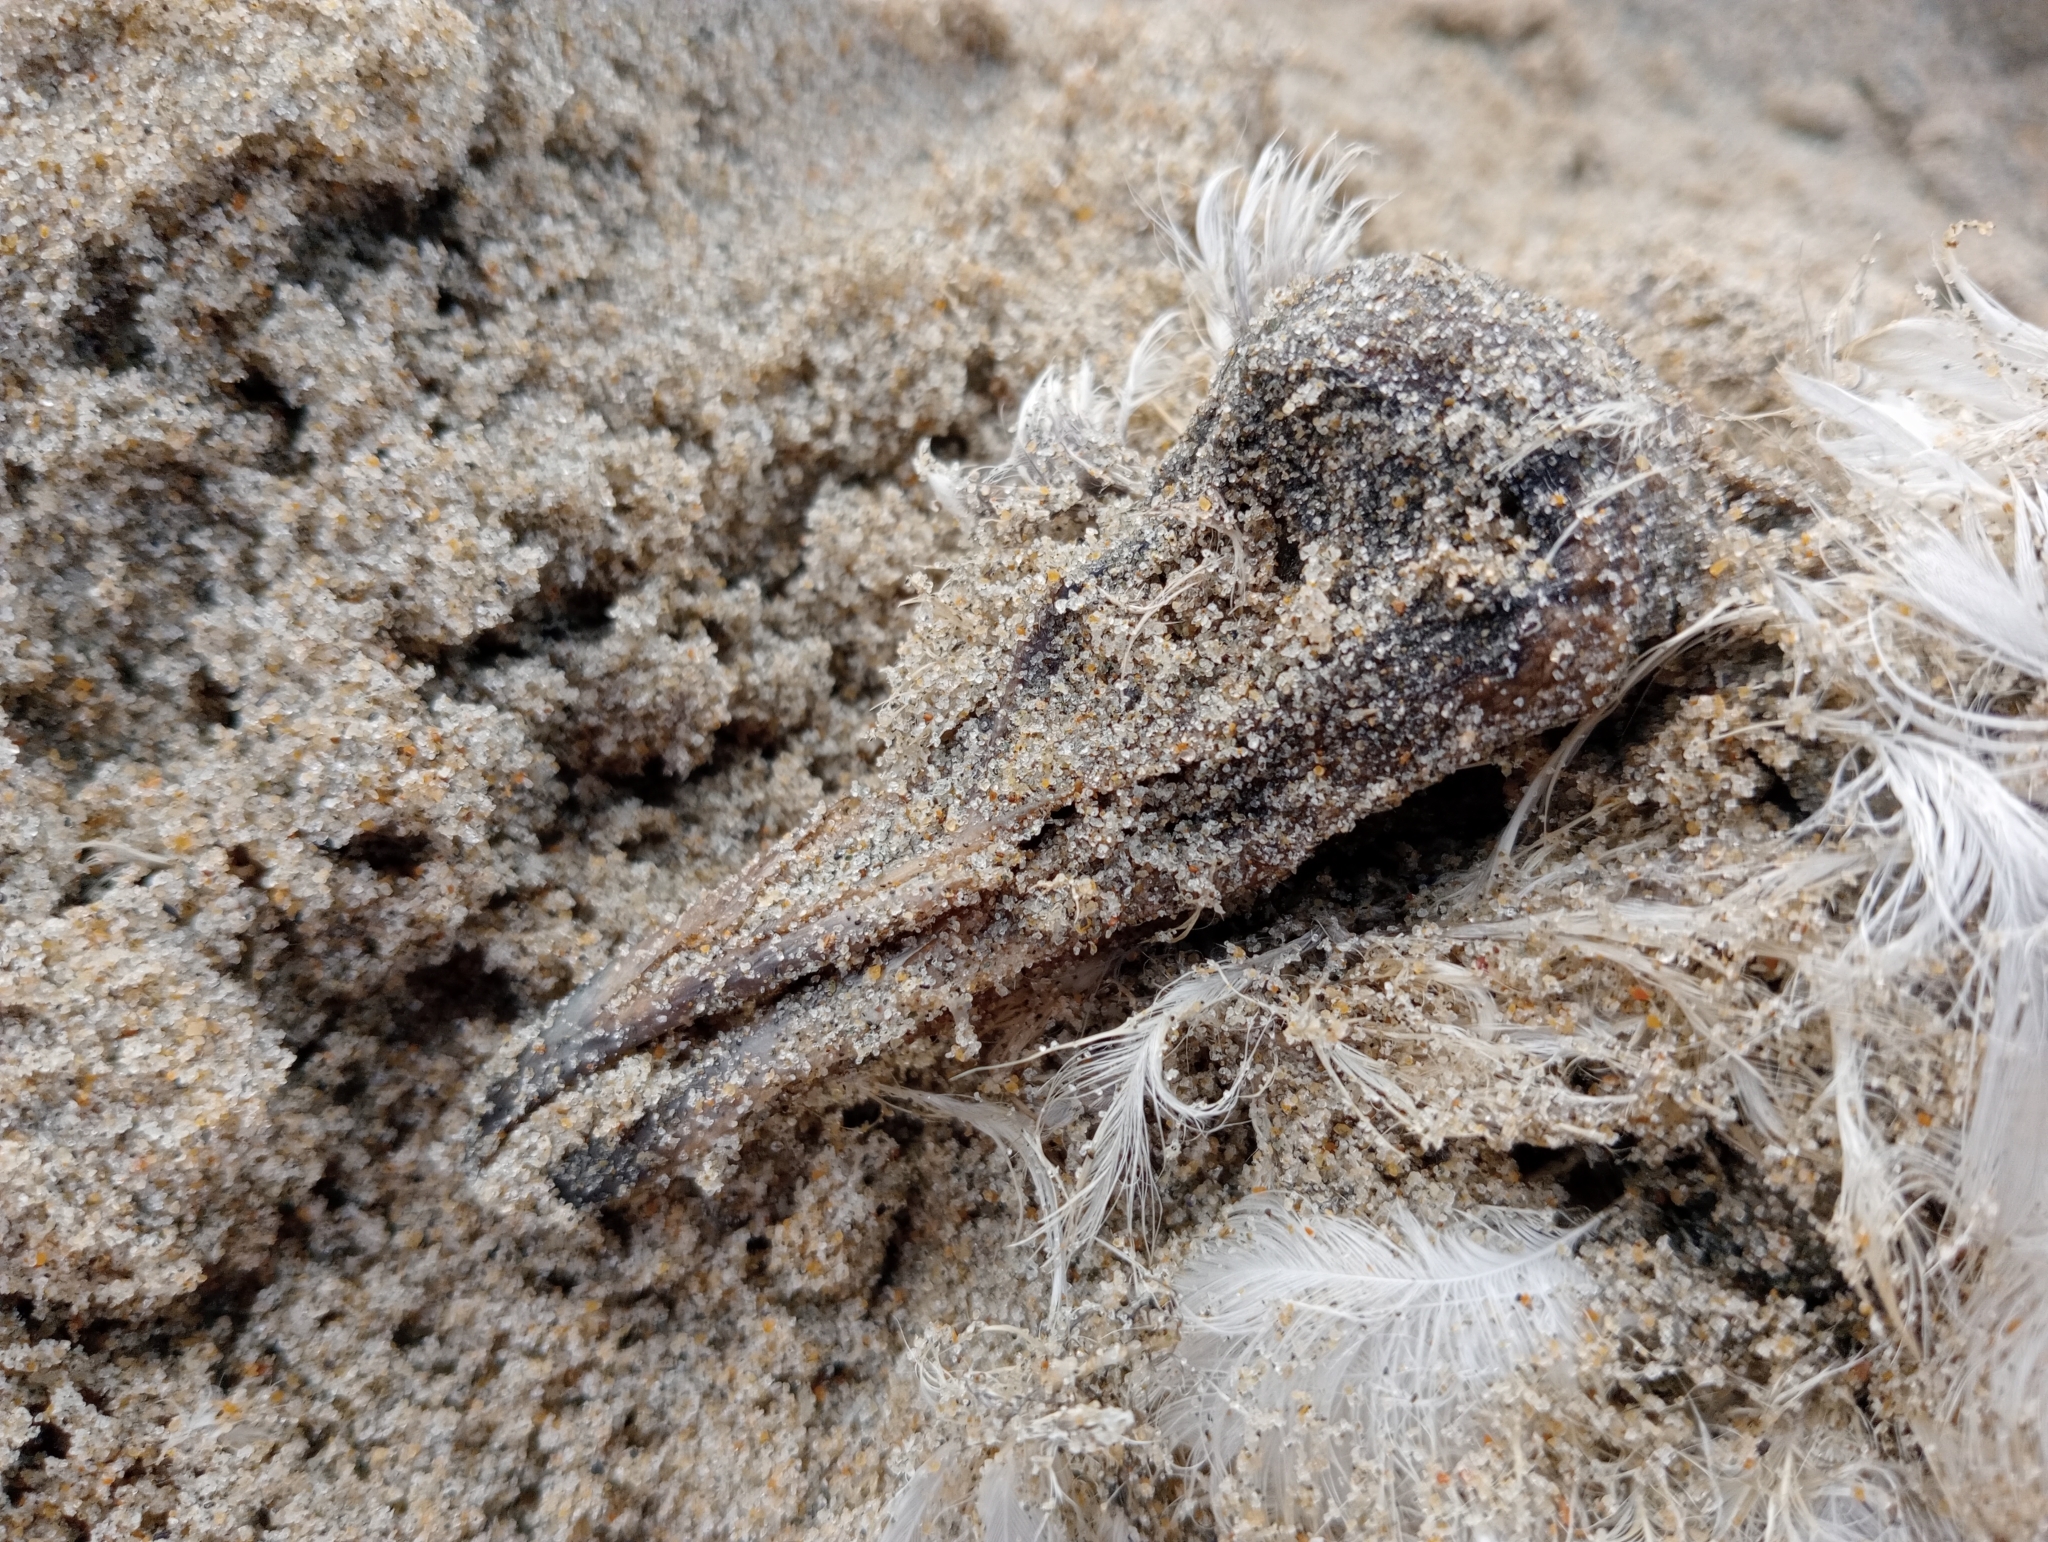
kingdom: Animalia
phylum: Chordata
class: Aves
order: Charadriiformes
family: Laridae
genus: Chroicocephalus
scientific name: Chroicocephalus novaehollandiae
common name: Silver gull
